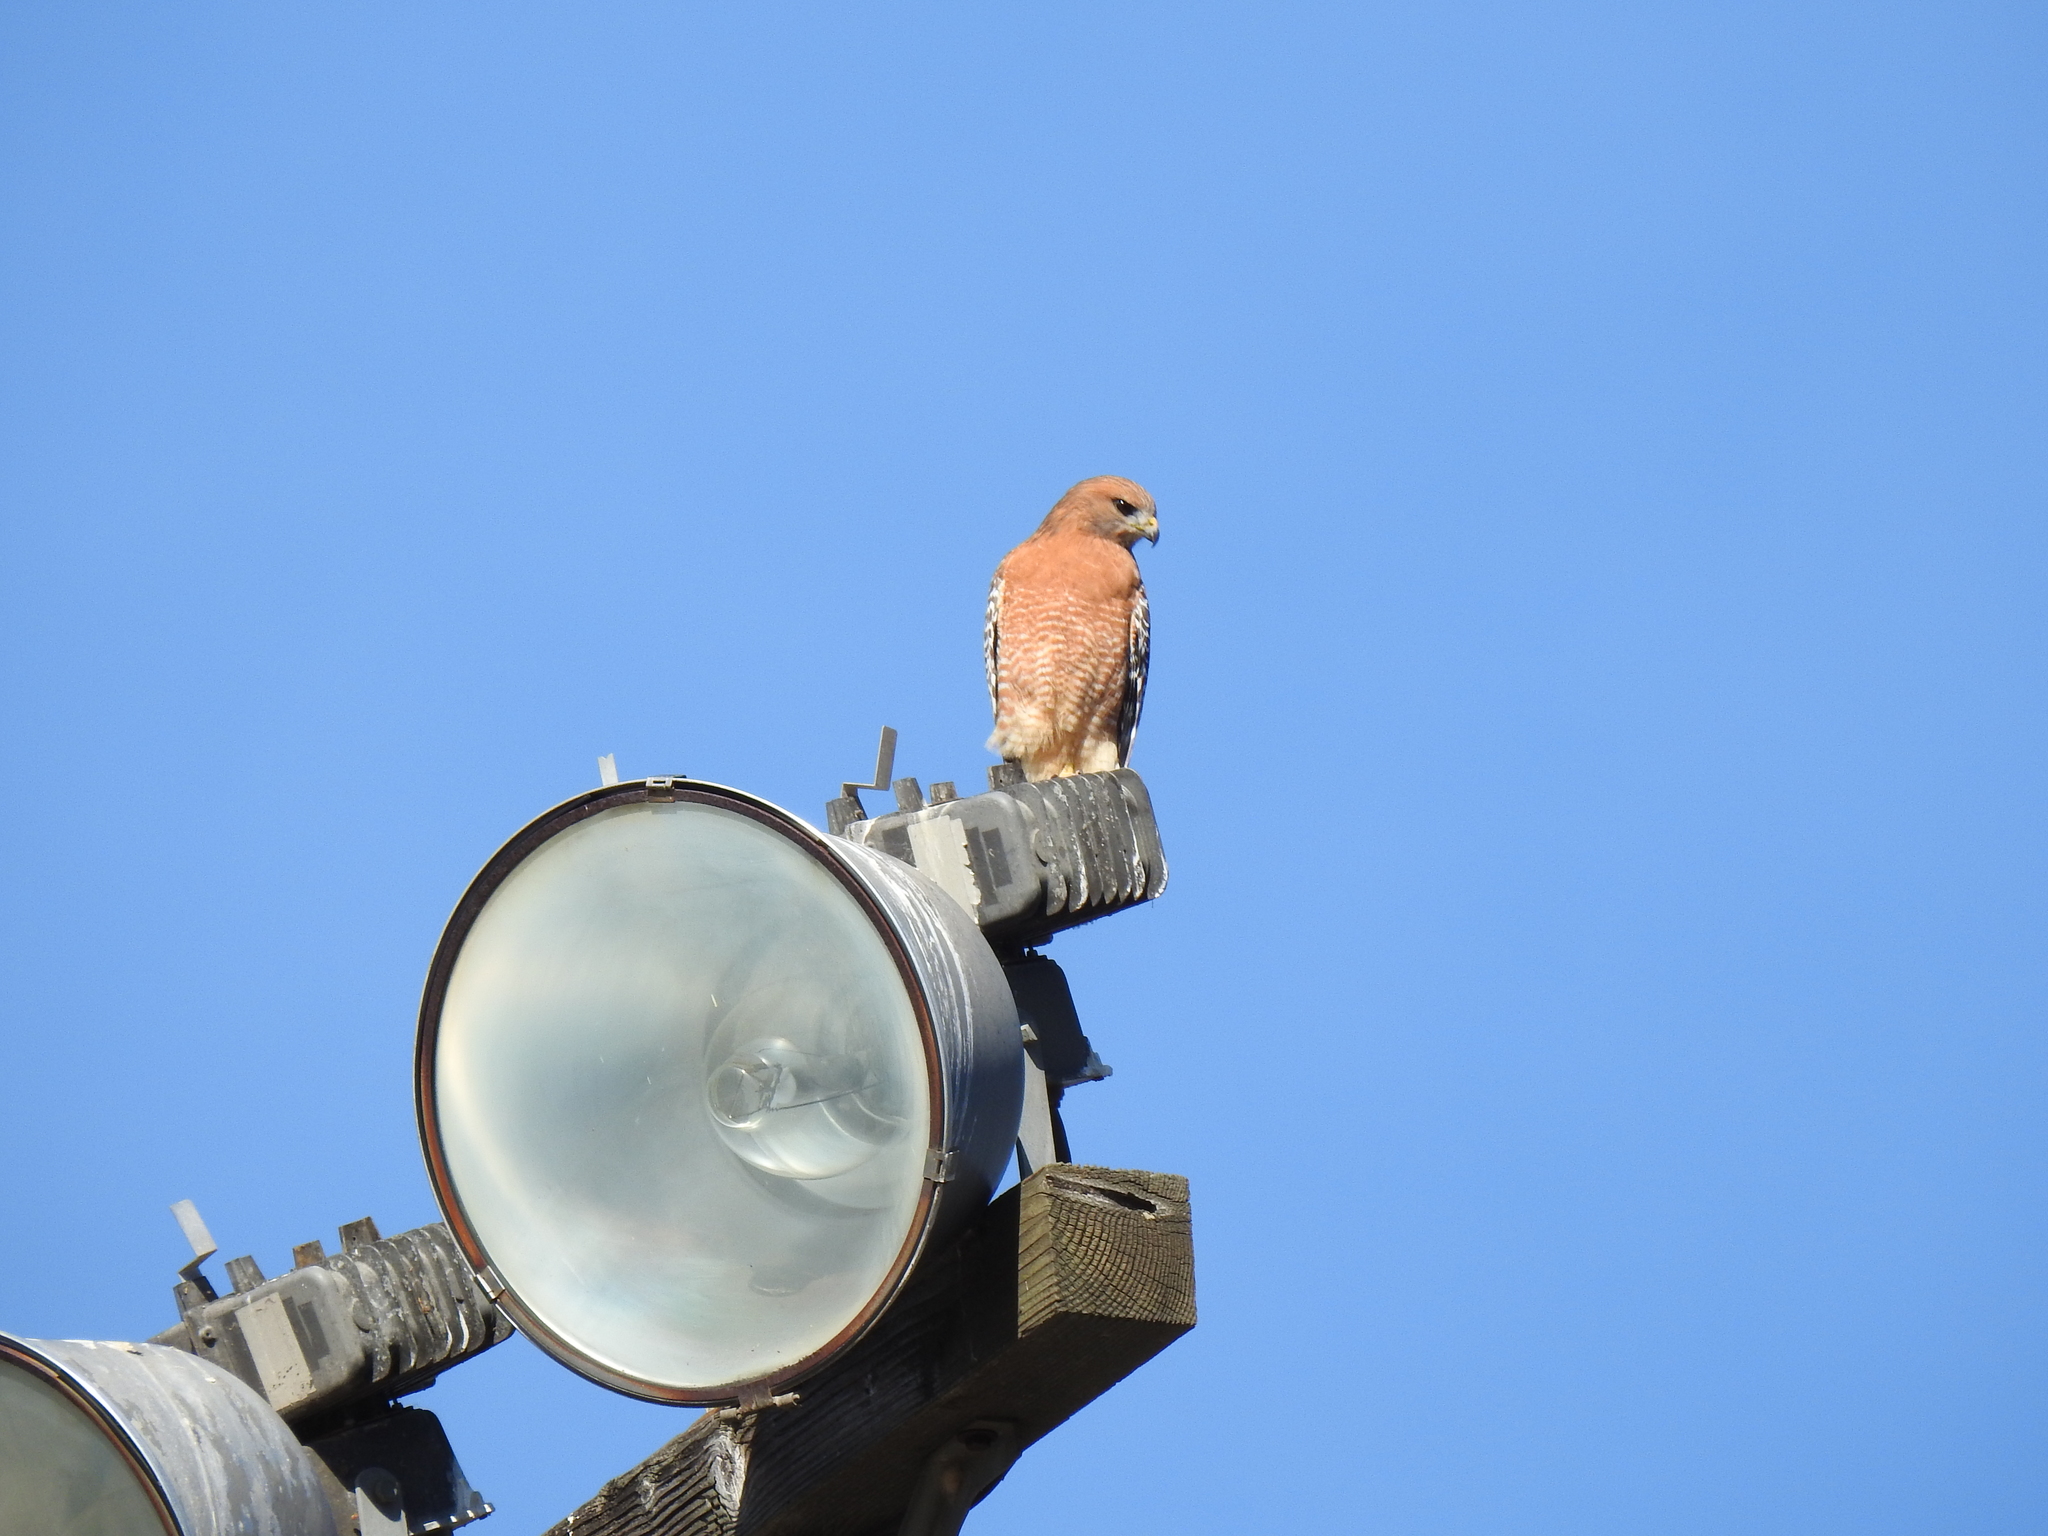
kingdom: Animalia
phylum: Chordata
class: Aves
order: Accipitriformes
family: Accipitridae
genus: Buteo
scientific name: Buteo lineatus
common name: Red-shouldered hawk
